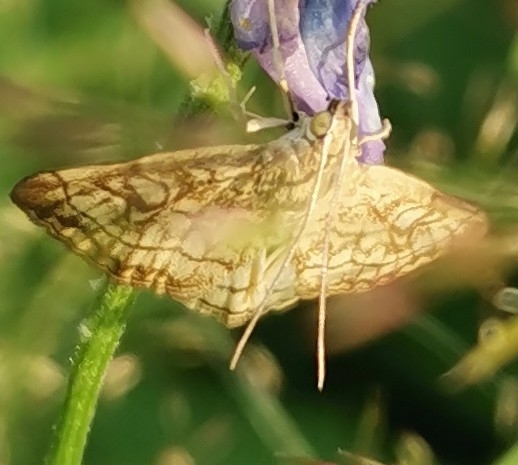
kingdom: Animalia
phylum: Arthropoda
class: Insecta
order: Lepidoptera
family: Crambidae
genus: Evergestis
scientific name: Evergestis pallidata
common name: Chequered pearl
